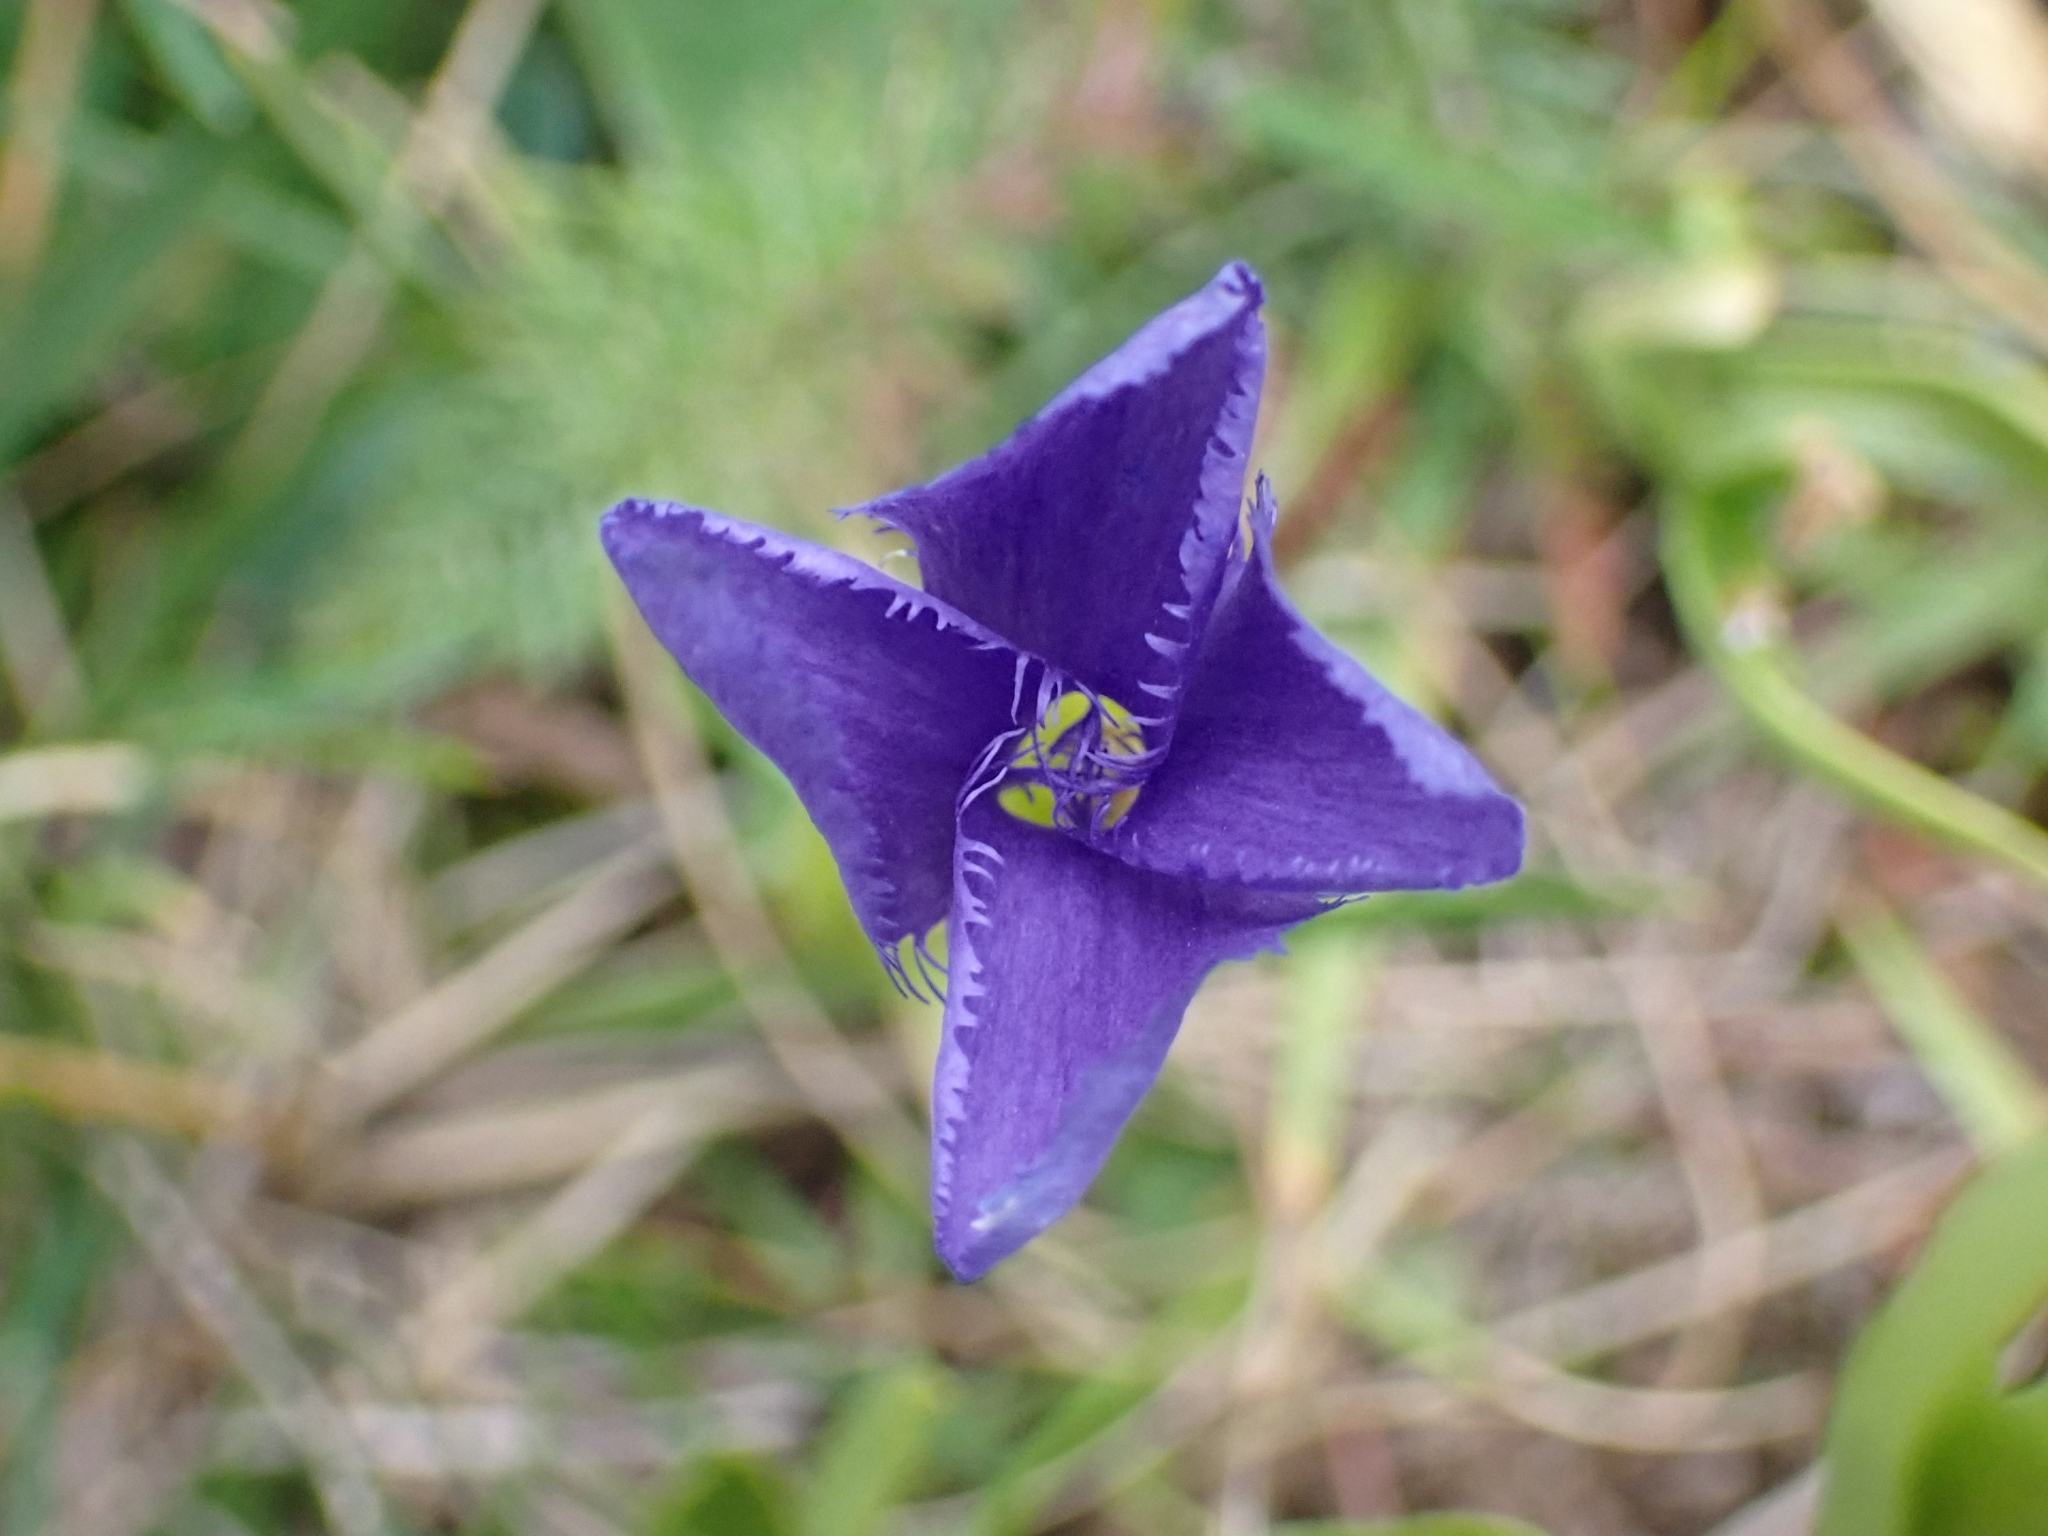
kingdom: Plantae
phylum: Tracheophyta
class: Magnoliopsida
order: Gentianales
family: Gentianaceae
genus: Gentianopsis
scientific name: Gentianopsis ciliata
